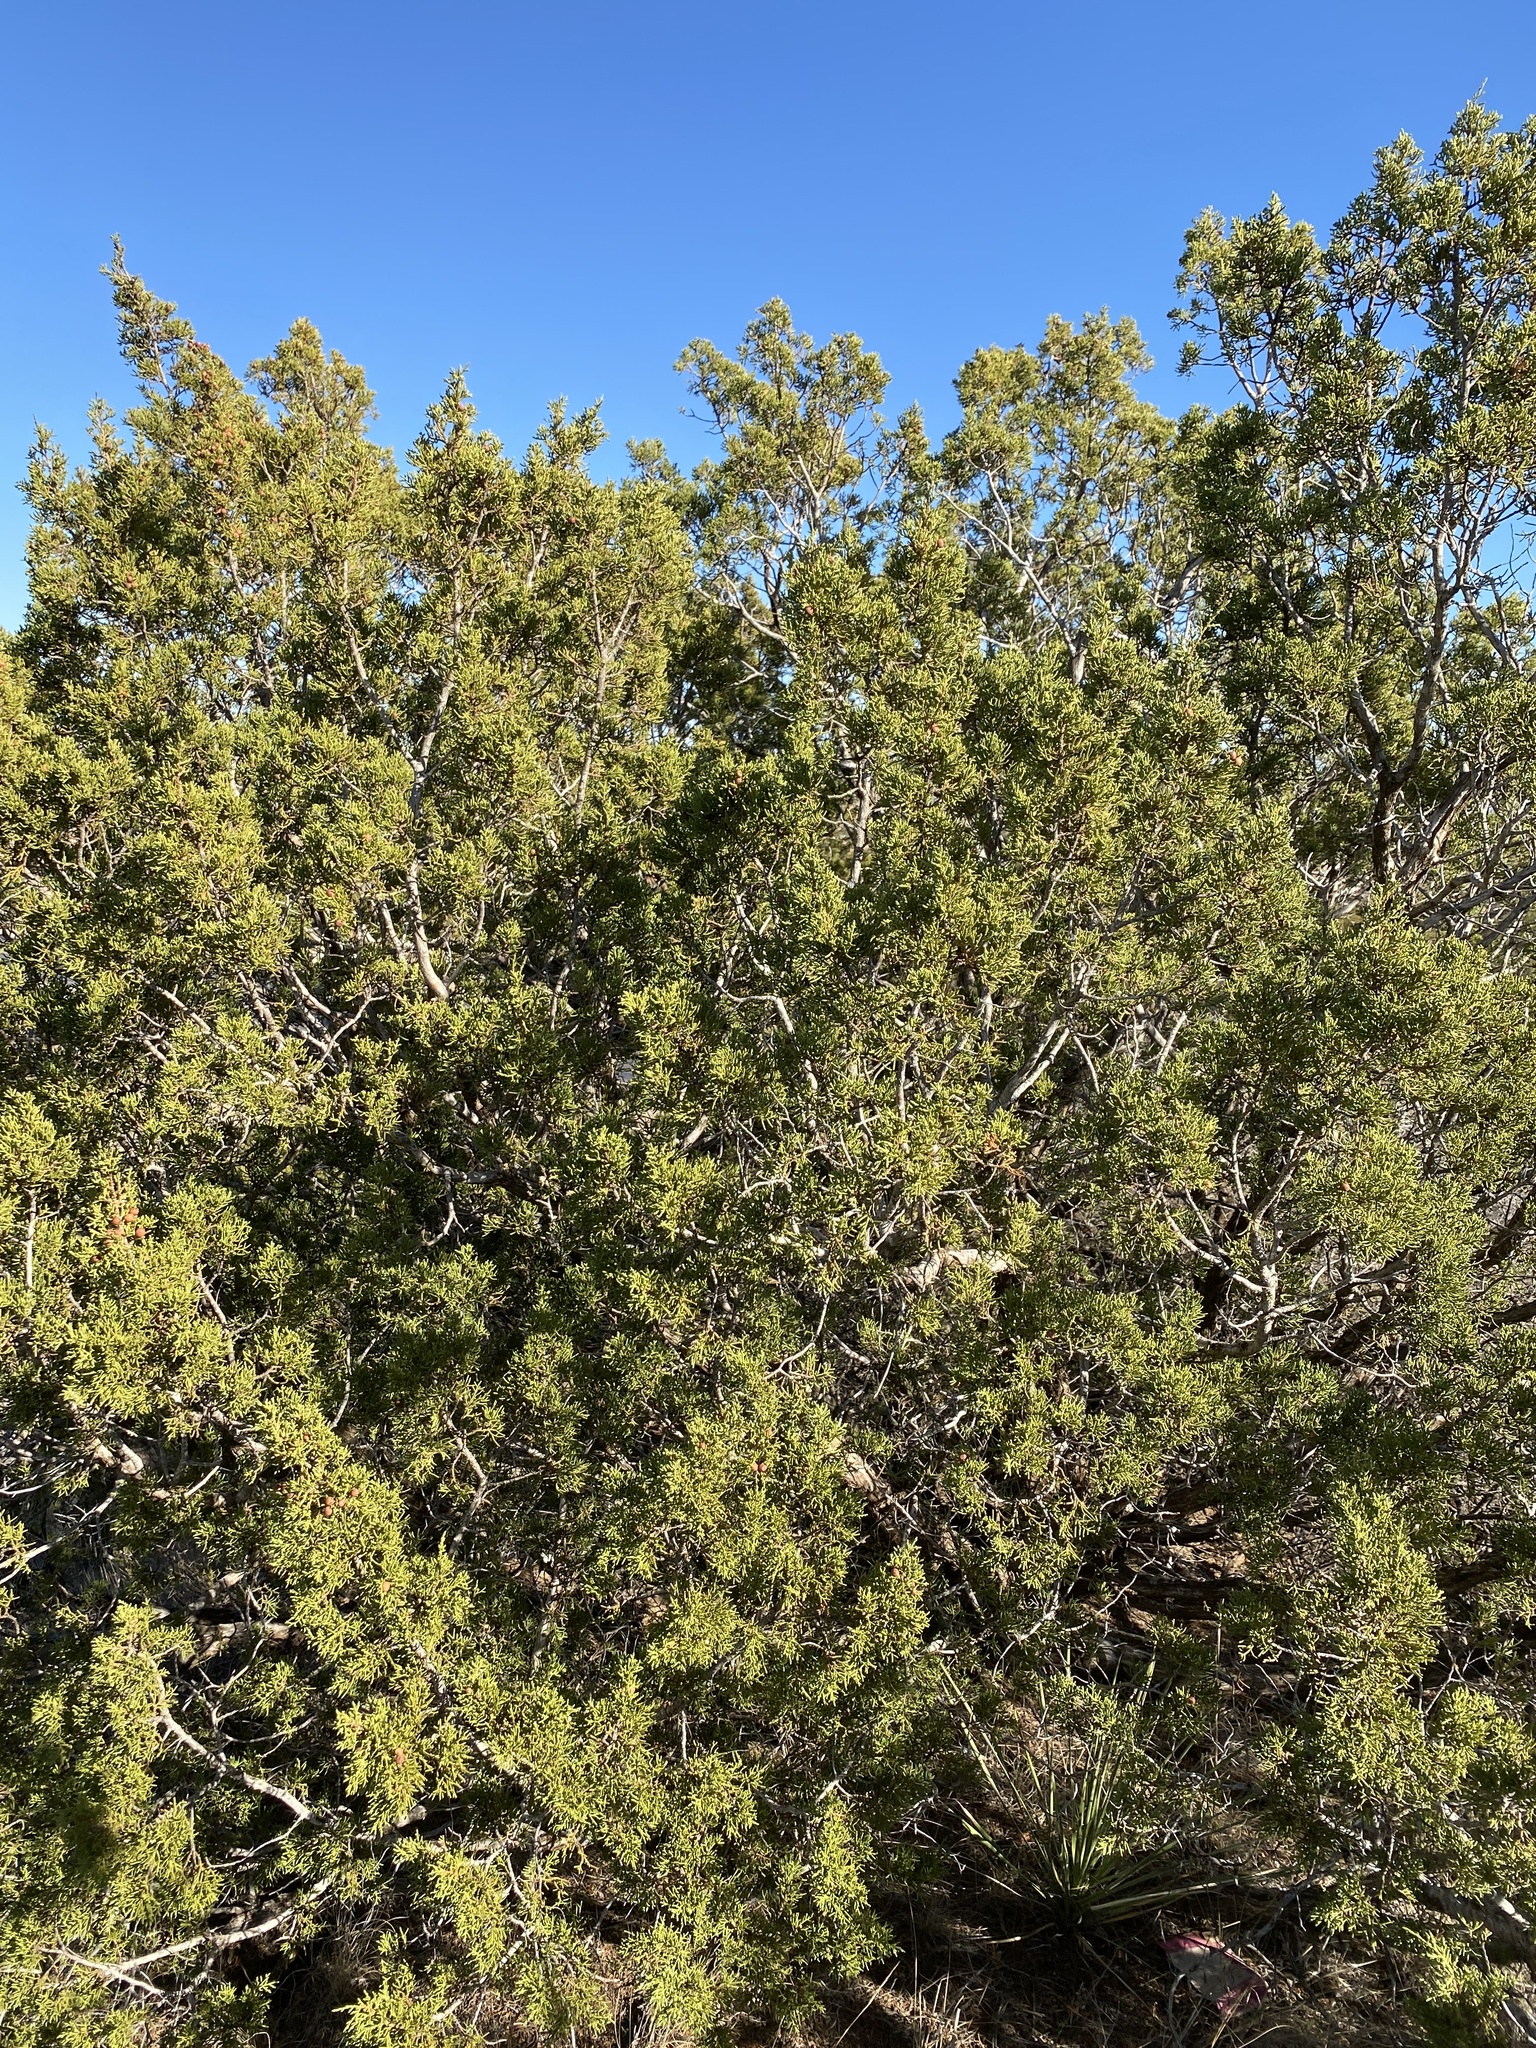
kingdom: Plantae
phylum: Tracheophyta
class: Pinopsida
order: Pinales
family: Cupressaceae
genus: Juniperus
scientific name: Juniperus pinchotii
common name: Pinchot juniper
